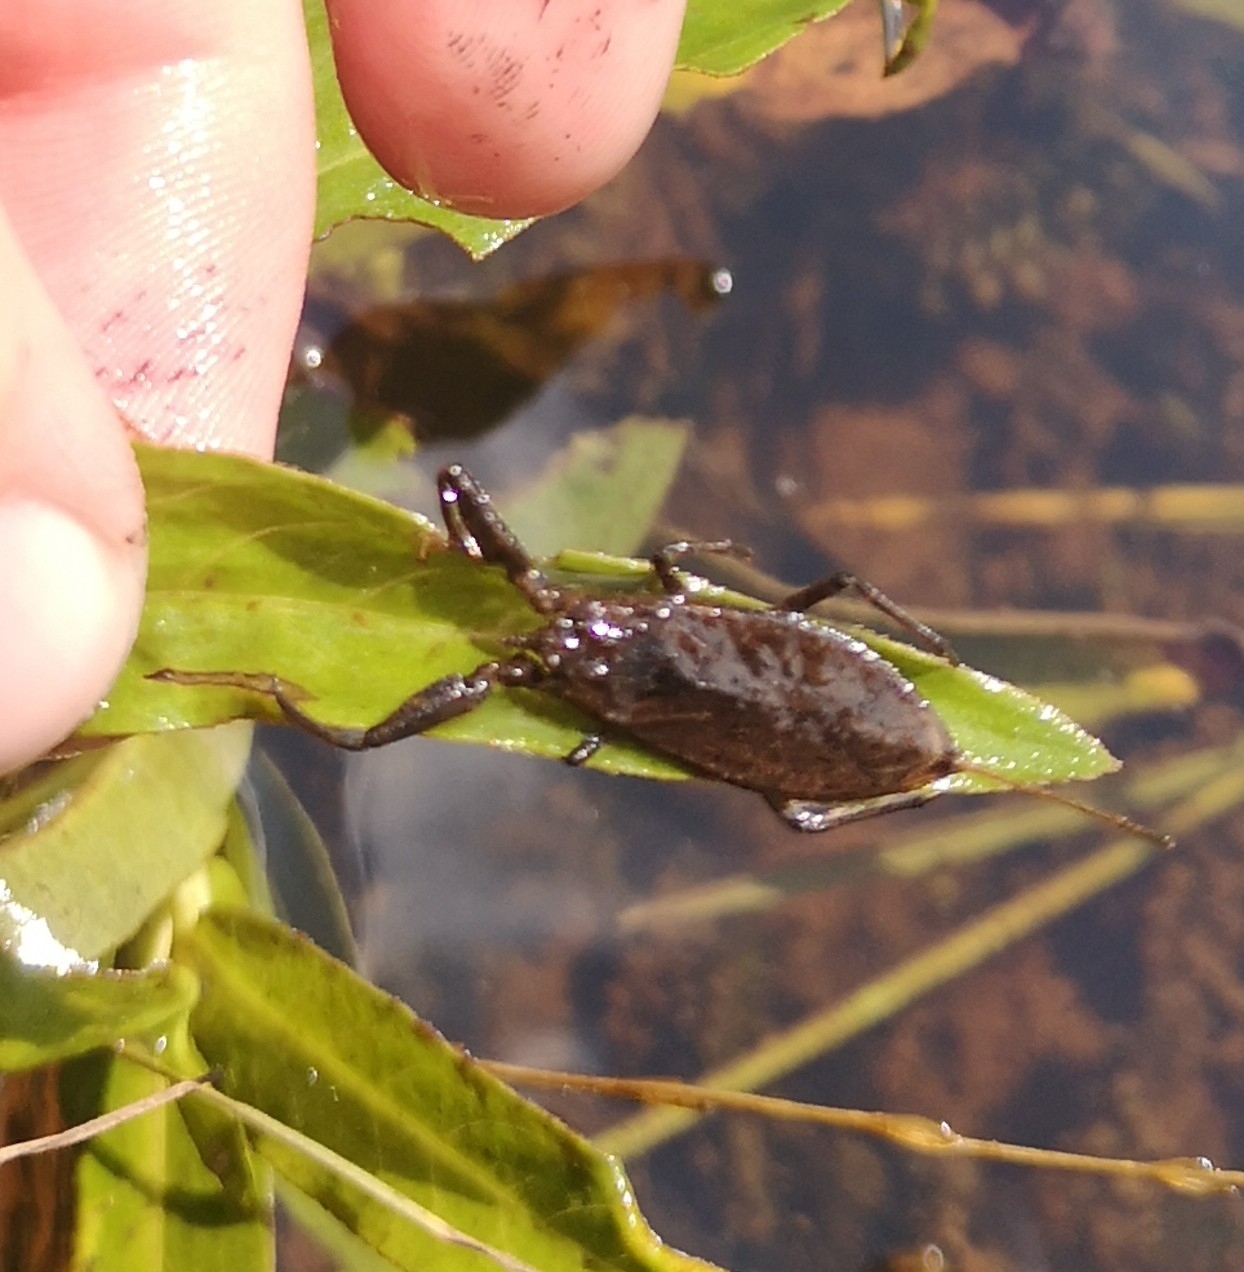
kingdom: Animalia
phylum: Arthropoda
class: Insecta
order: Hemiptera
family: Nepidae
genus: Nepa
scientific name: Nepa cinerea
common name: Water scorpion
